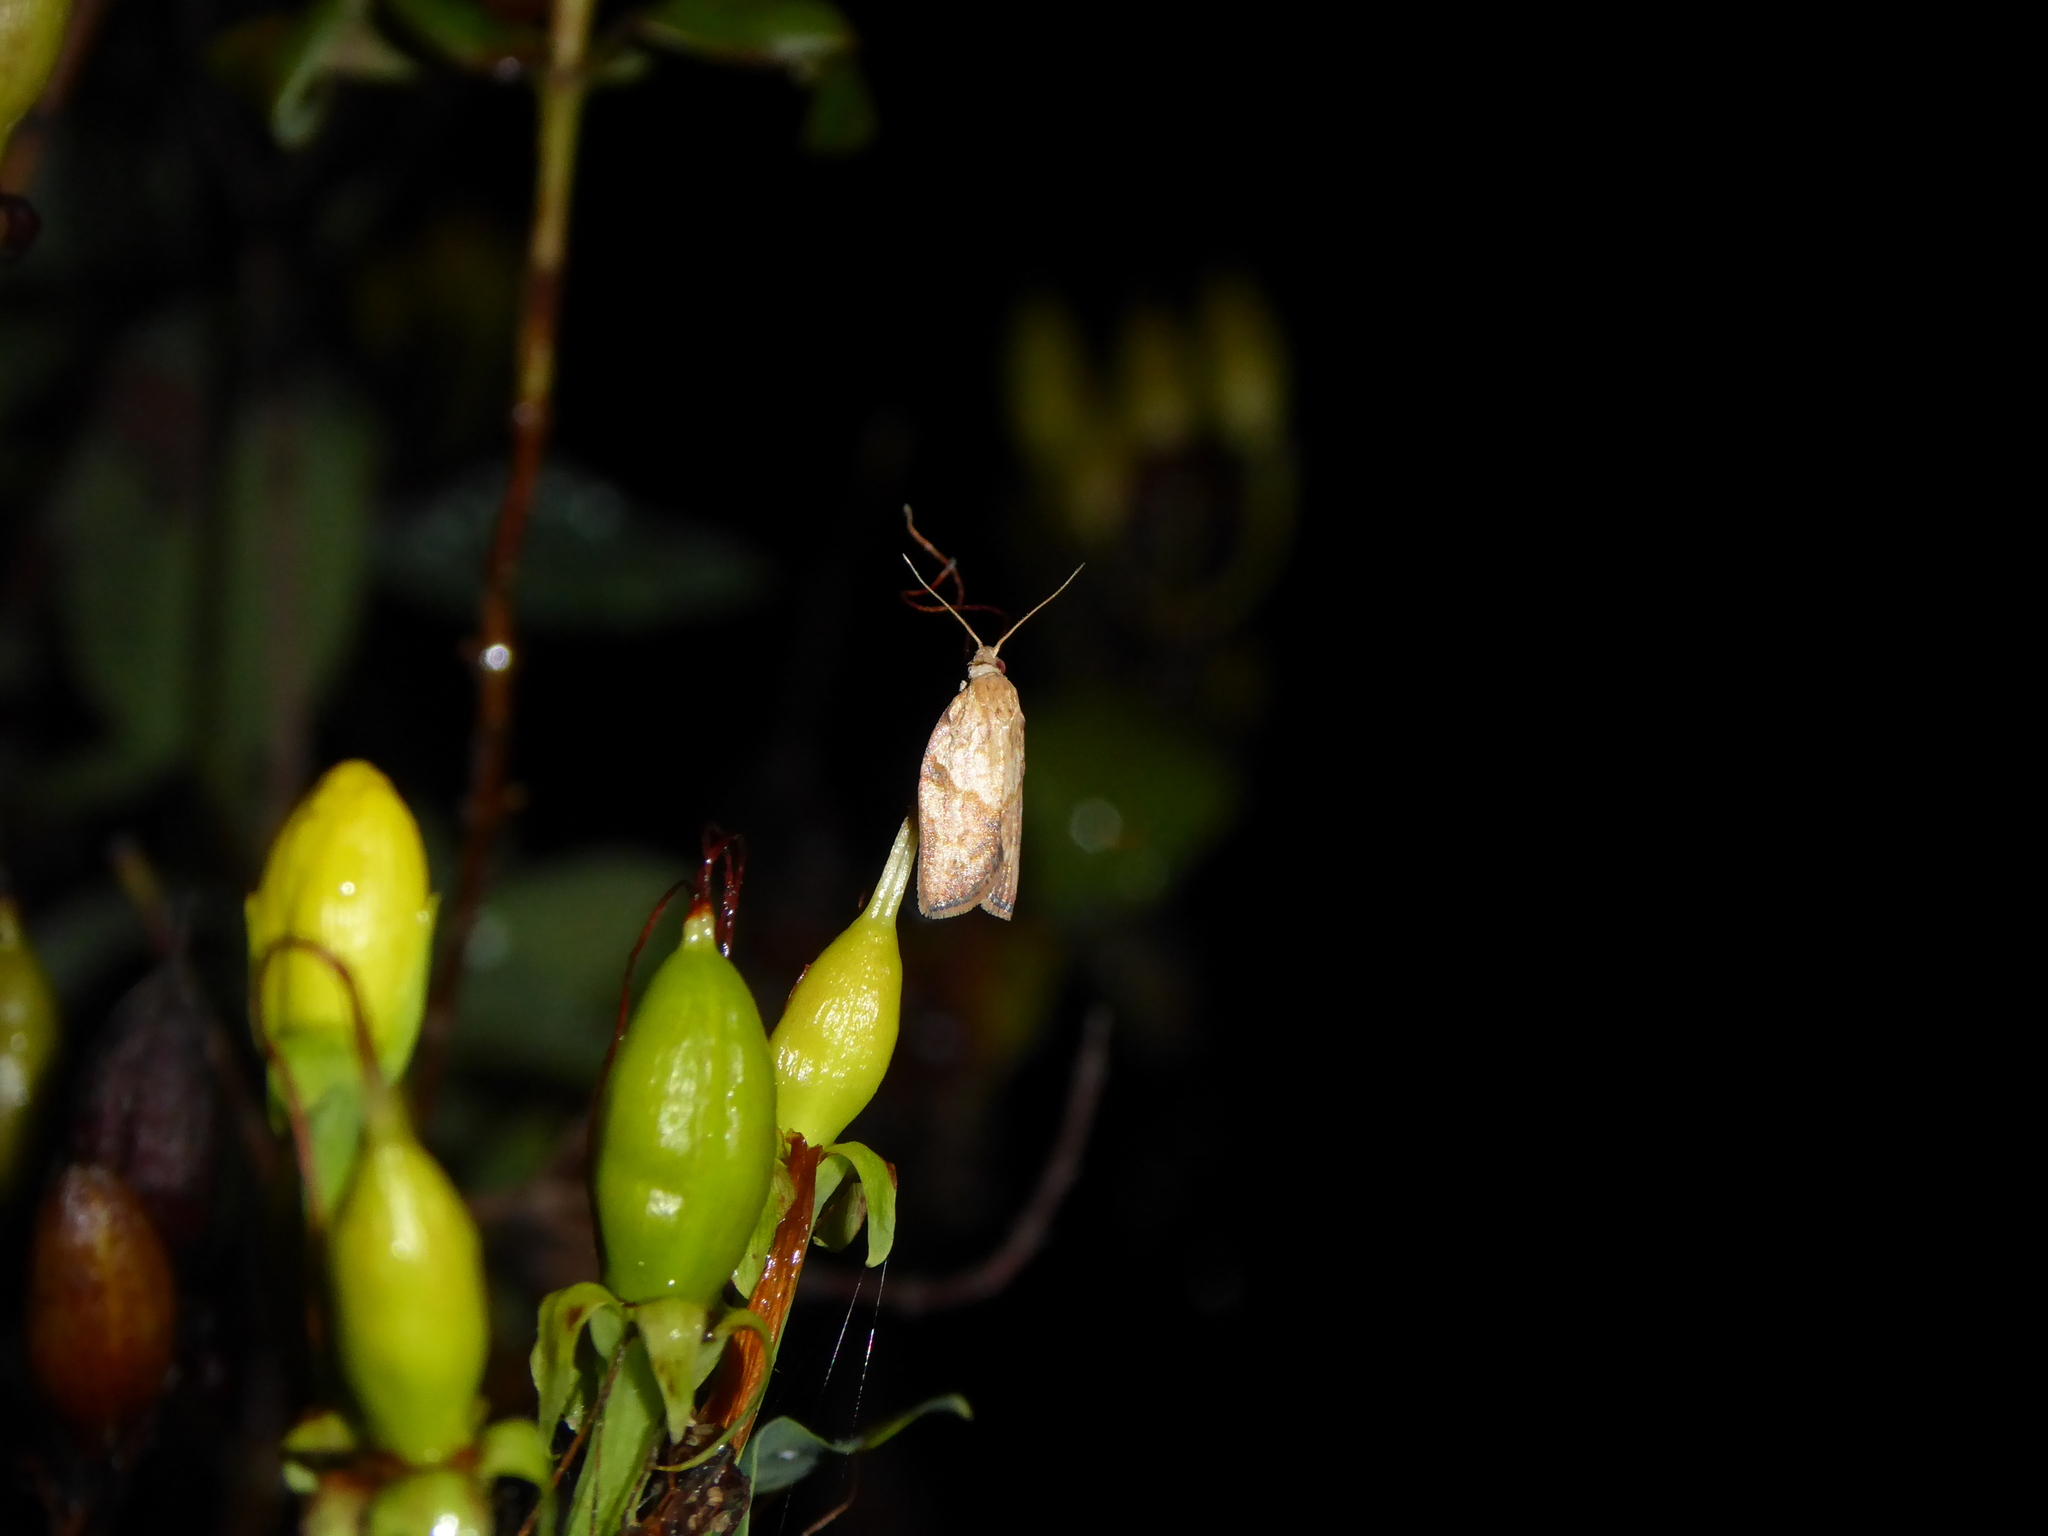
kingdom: Animalia
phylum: Arthropoda
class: Insecta
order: Lepidoptera
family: Tortricidae
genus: Epiphyas
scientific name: Epiphyas postvittana
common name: Light brown apple moth
